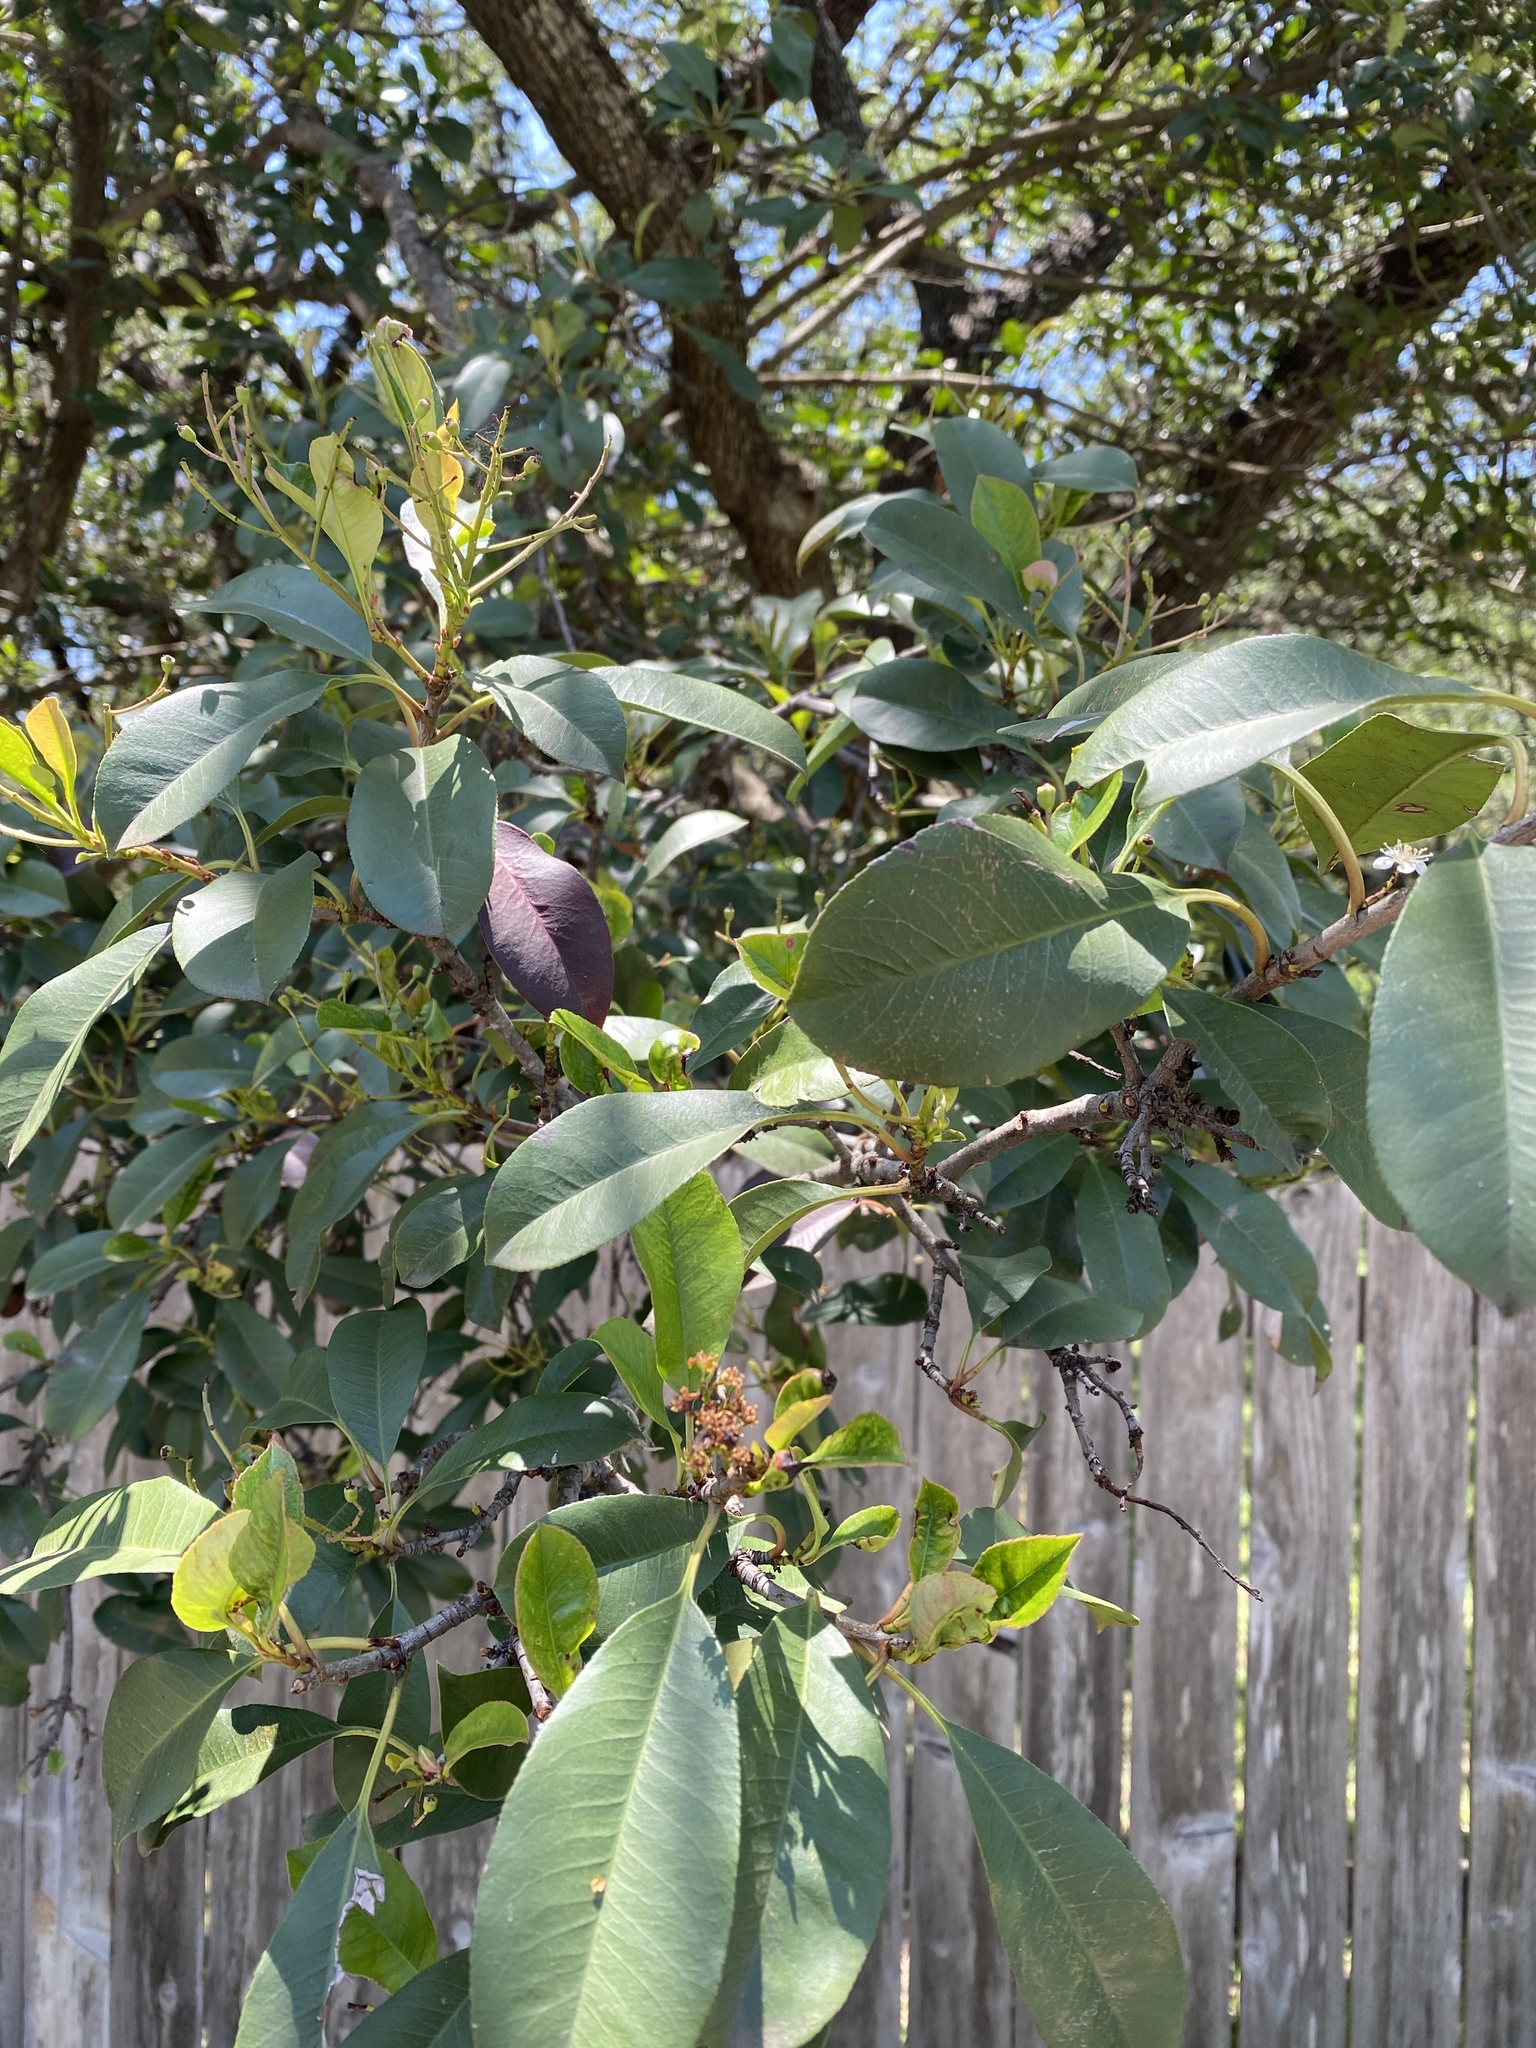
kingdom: Plantae
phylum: Tracheophyta
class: Magnoliopsida
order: Rosales
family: Rosaceae
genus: Photinia
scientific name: Photinia fraseri
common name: Fraser's photinia
